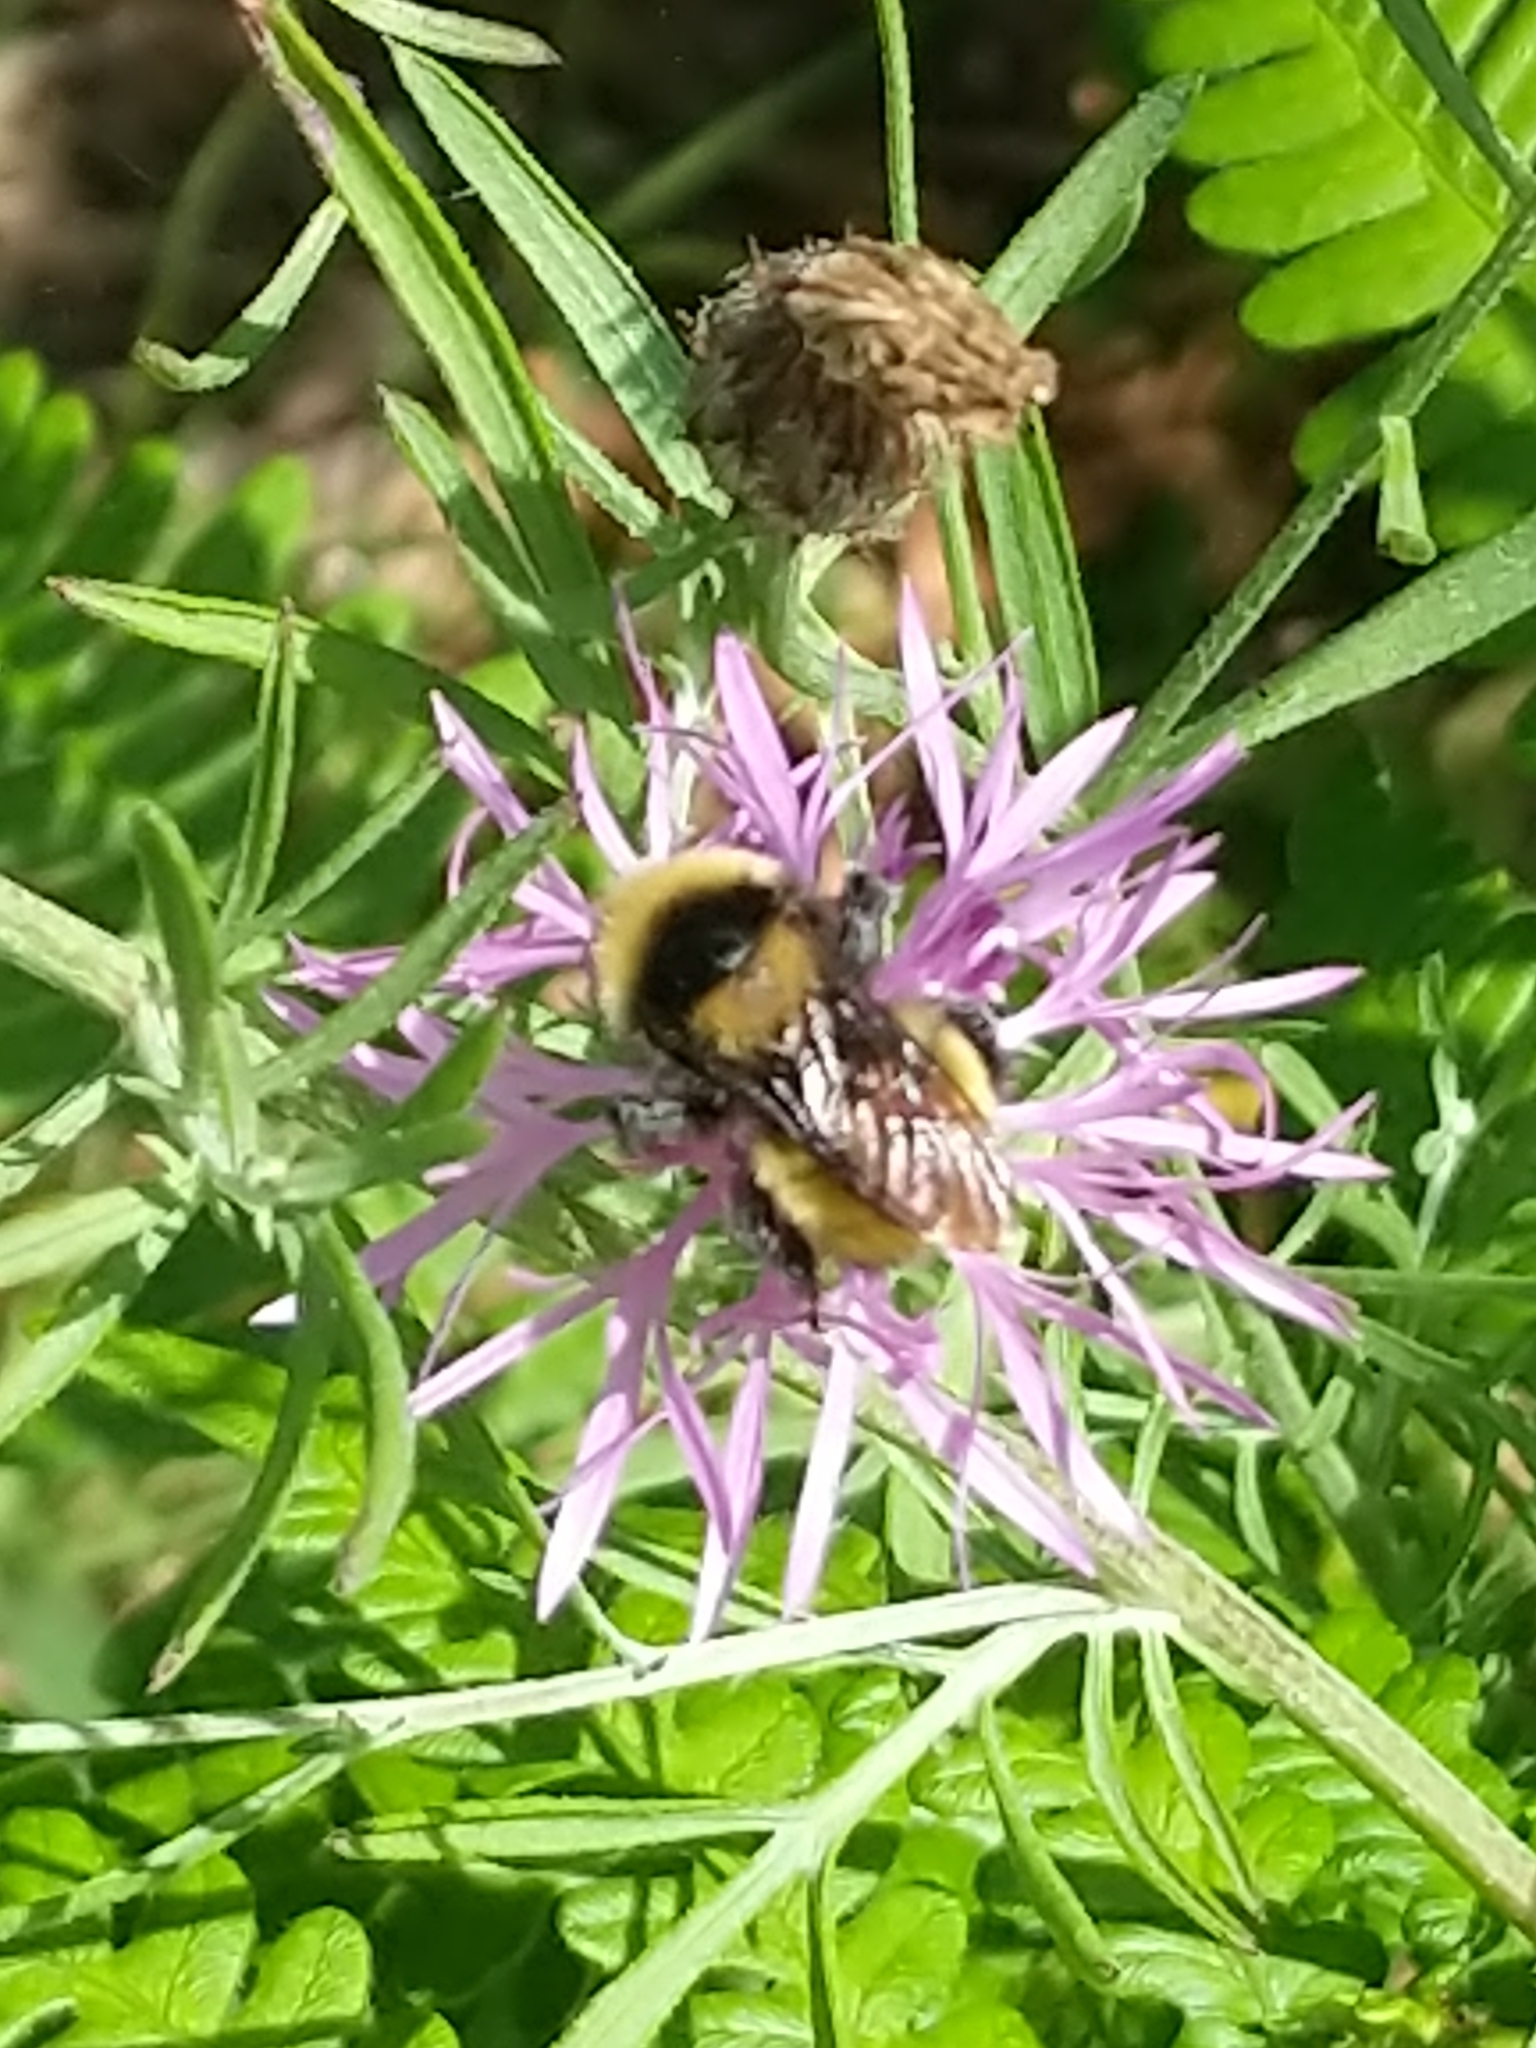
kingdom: Animalia
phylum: Arthropoda
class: Insecta
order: Hymenoptera
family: Apidae
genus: Bombus
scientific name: Bombus borealis
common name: Northern amber bumble bee
